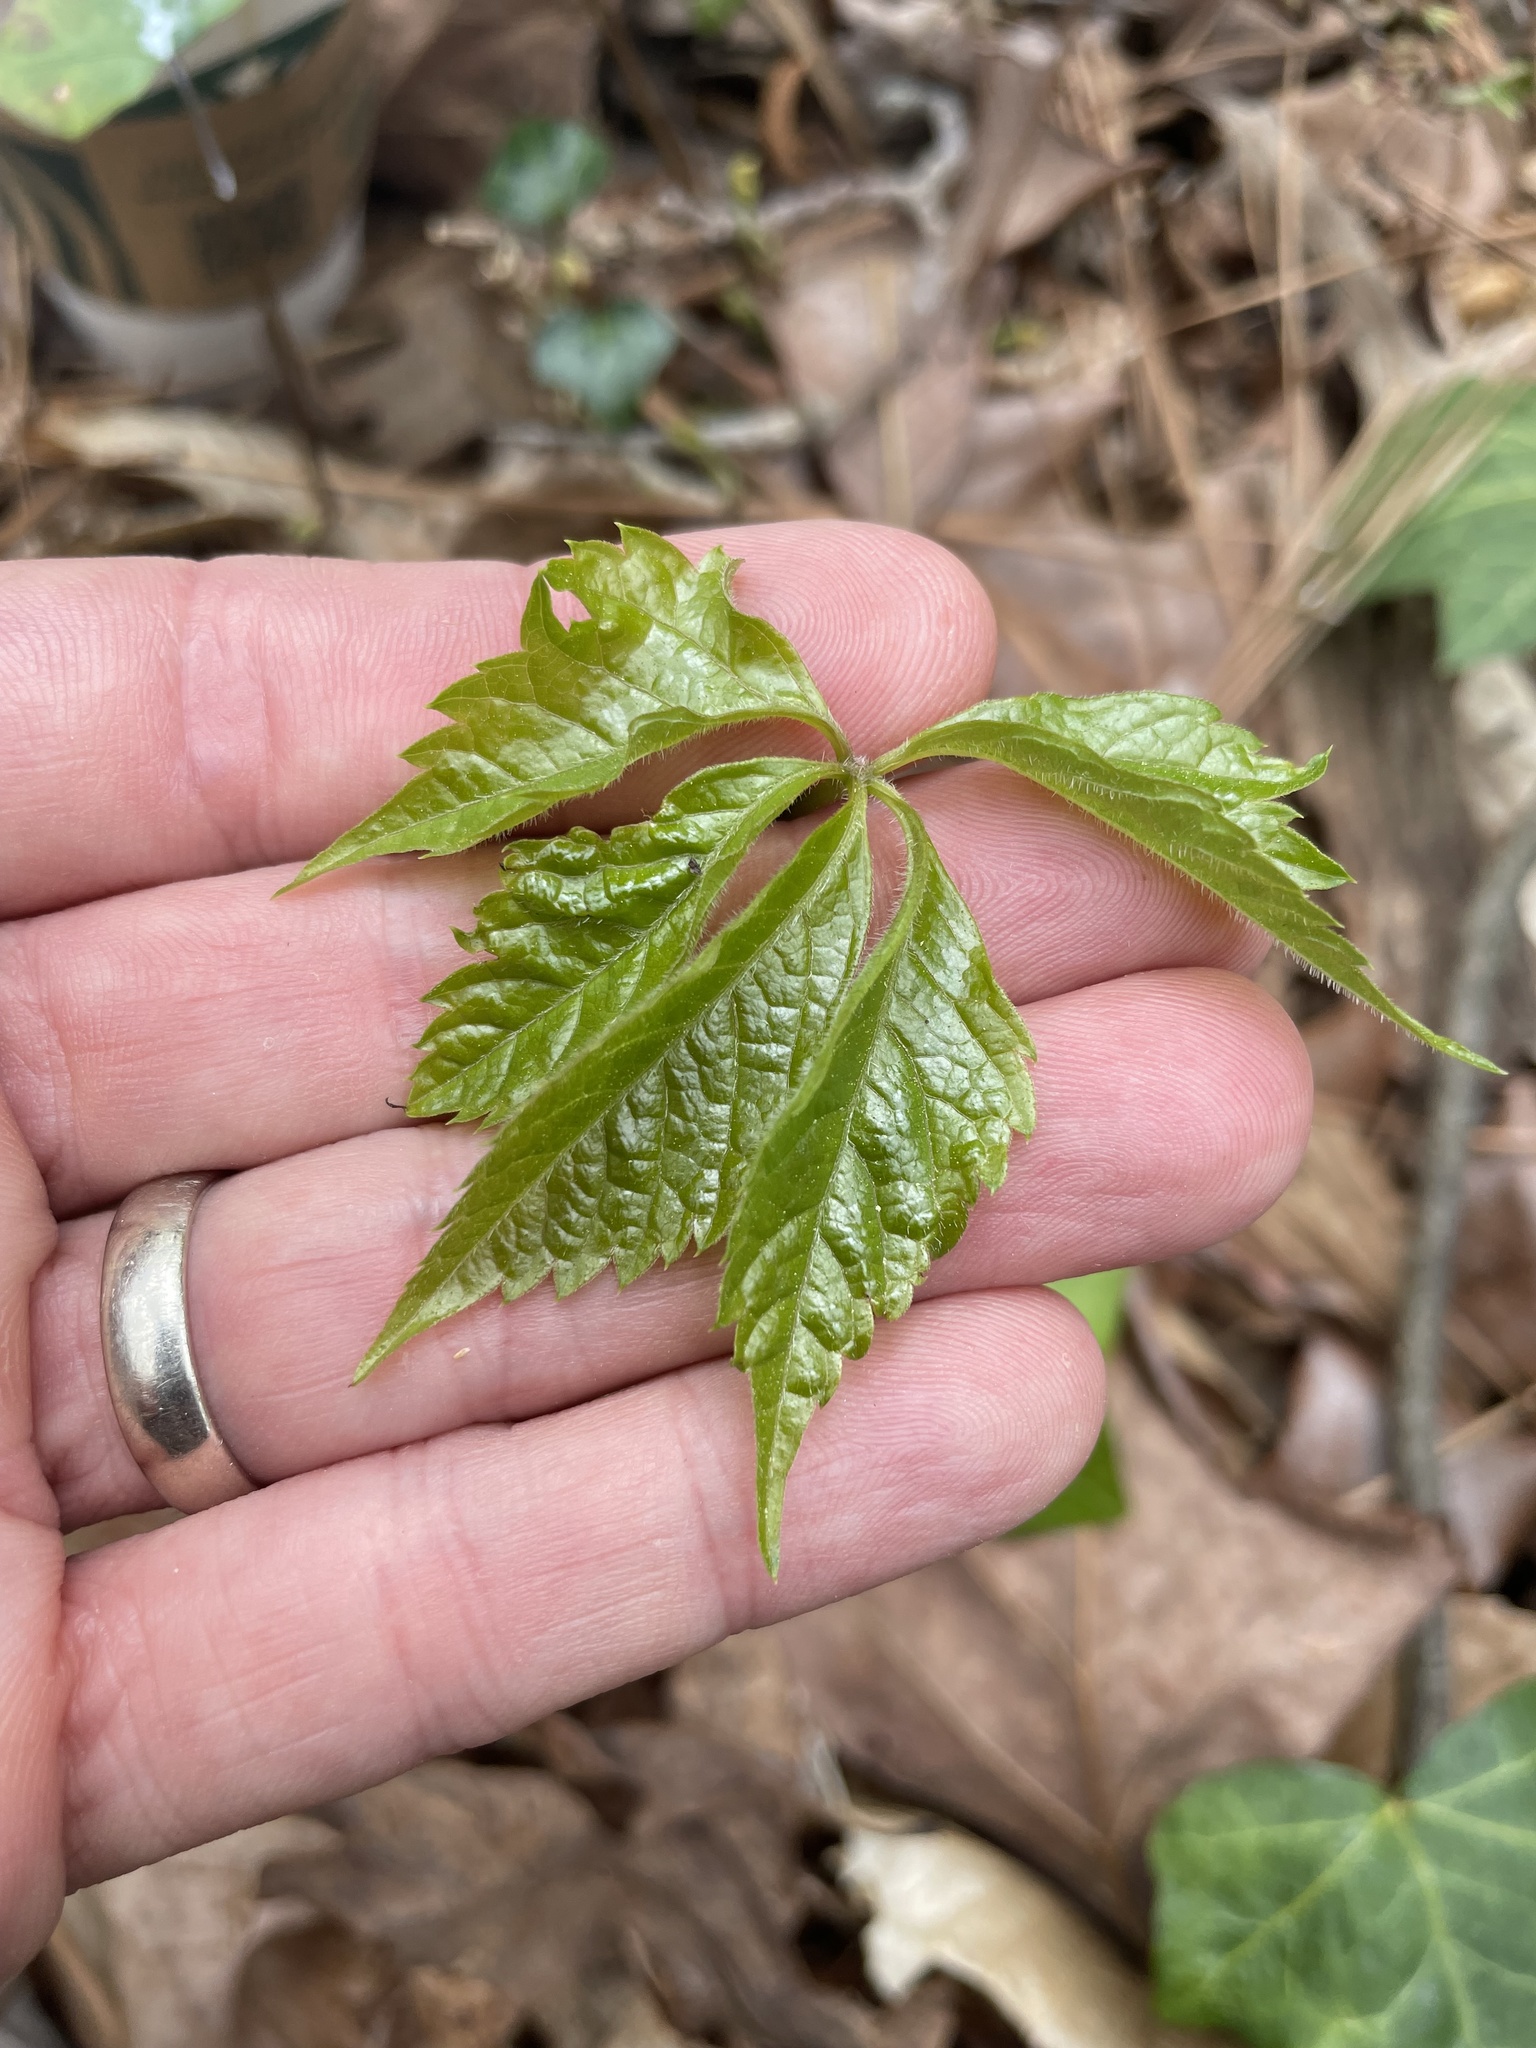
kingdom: Plantae
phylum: Tracheophyta
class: Magnoliopsida
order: Vitales
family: Vitaceae
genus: Parthenocissus
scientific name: Parthenocissus quinquefolia
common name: Virginia-creeper
